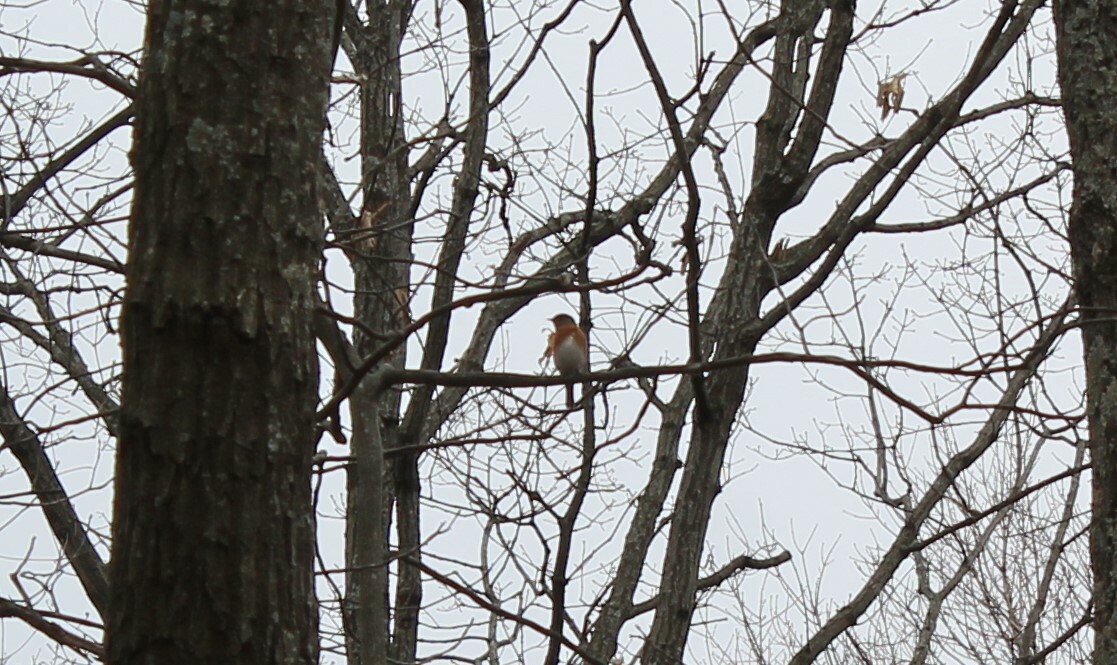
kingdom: Animalia
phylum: Chordata
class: Aves
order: Passeriformes
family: Turdidae
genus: Sialia
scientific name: Sialia sialis
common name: Eastern bluebird
